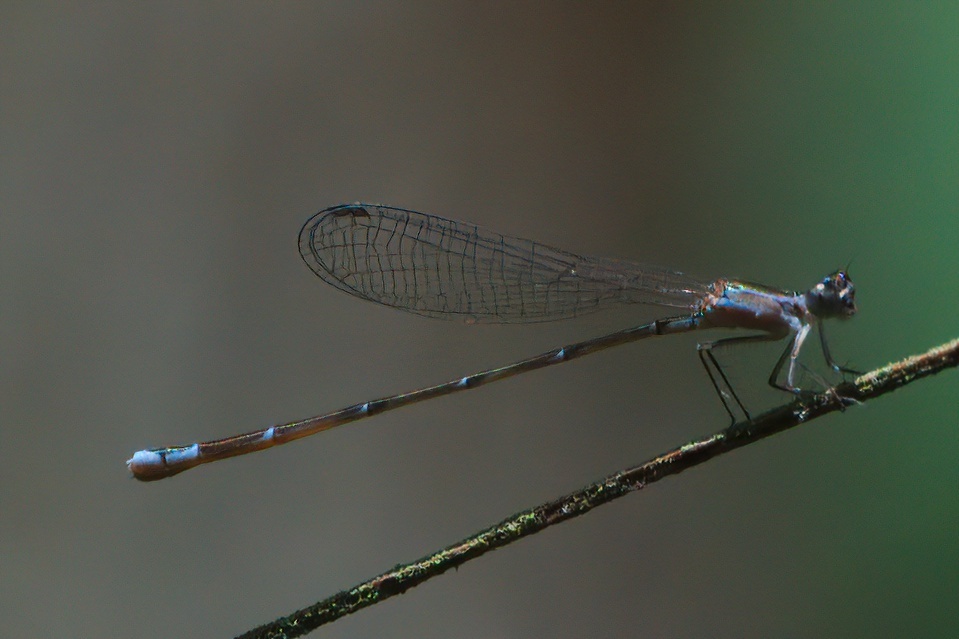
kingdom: Animalia
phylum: Arthropoda
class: Insecta
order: Odonata
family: Coenagrionidae
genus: Nehalennia
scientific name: Nehalennia pallidula
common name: Everglades sprite
